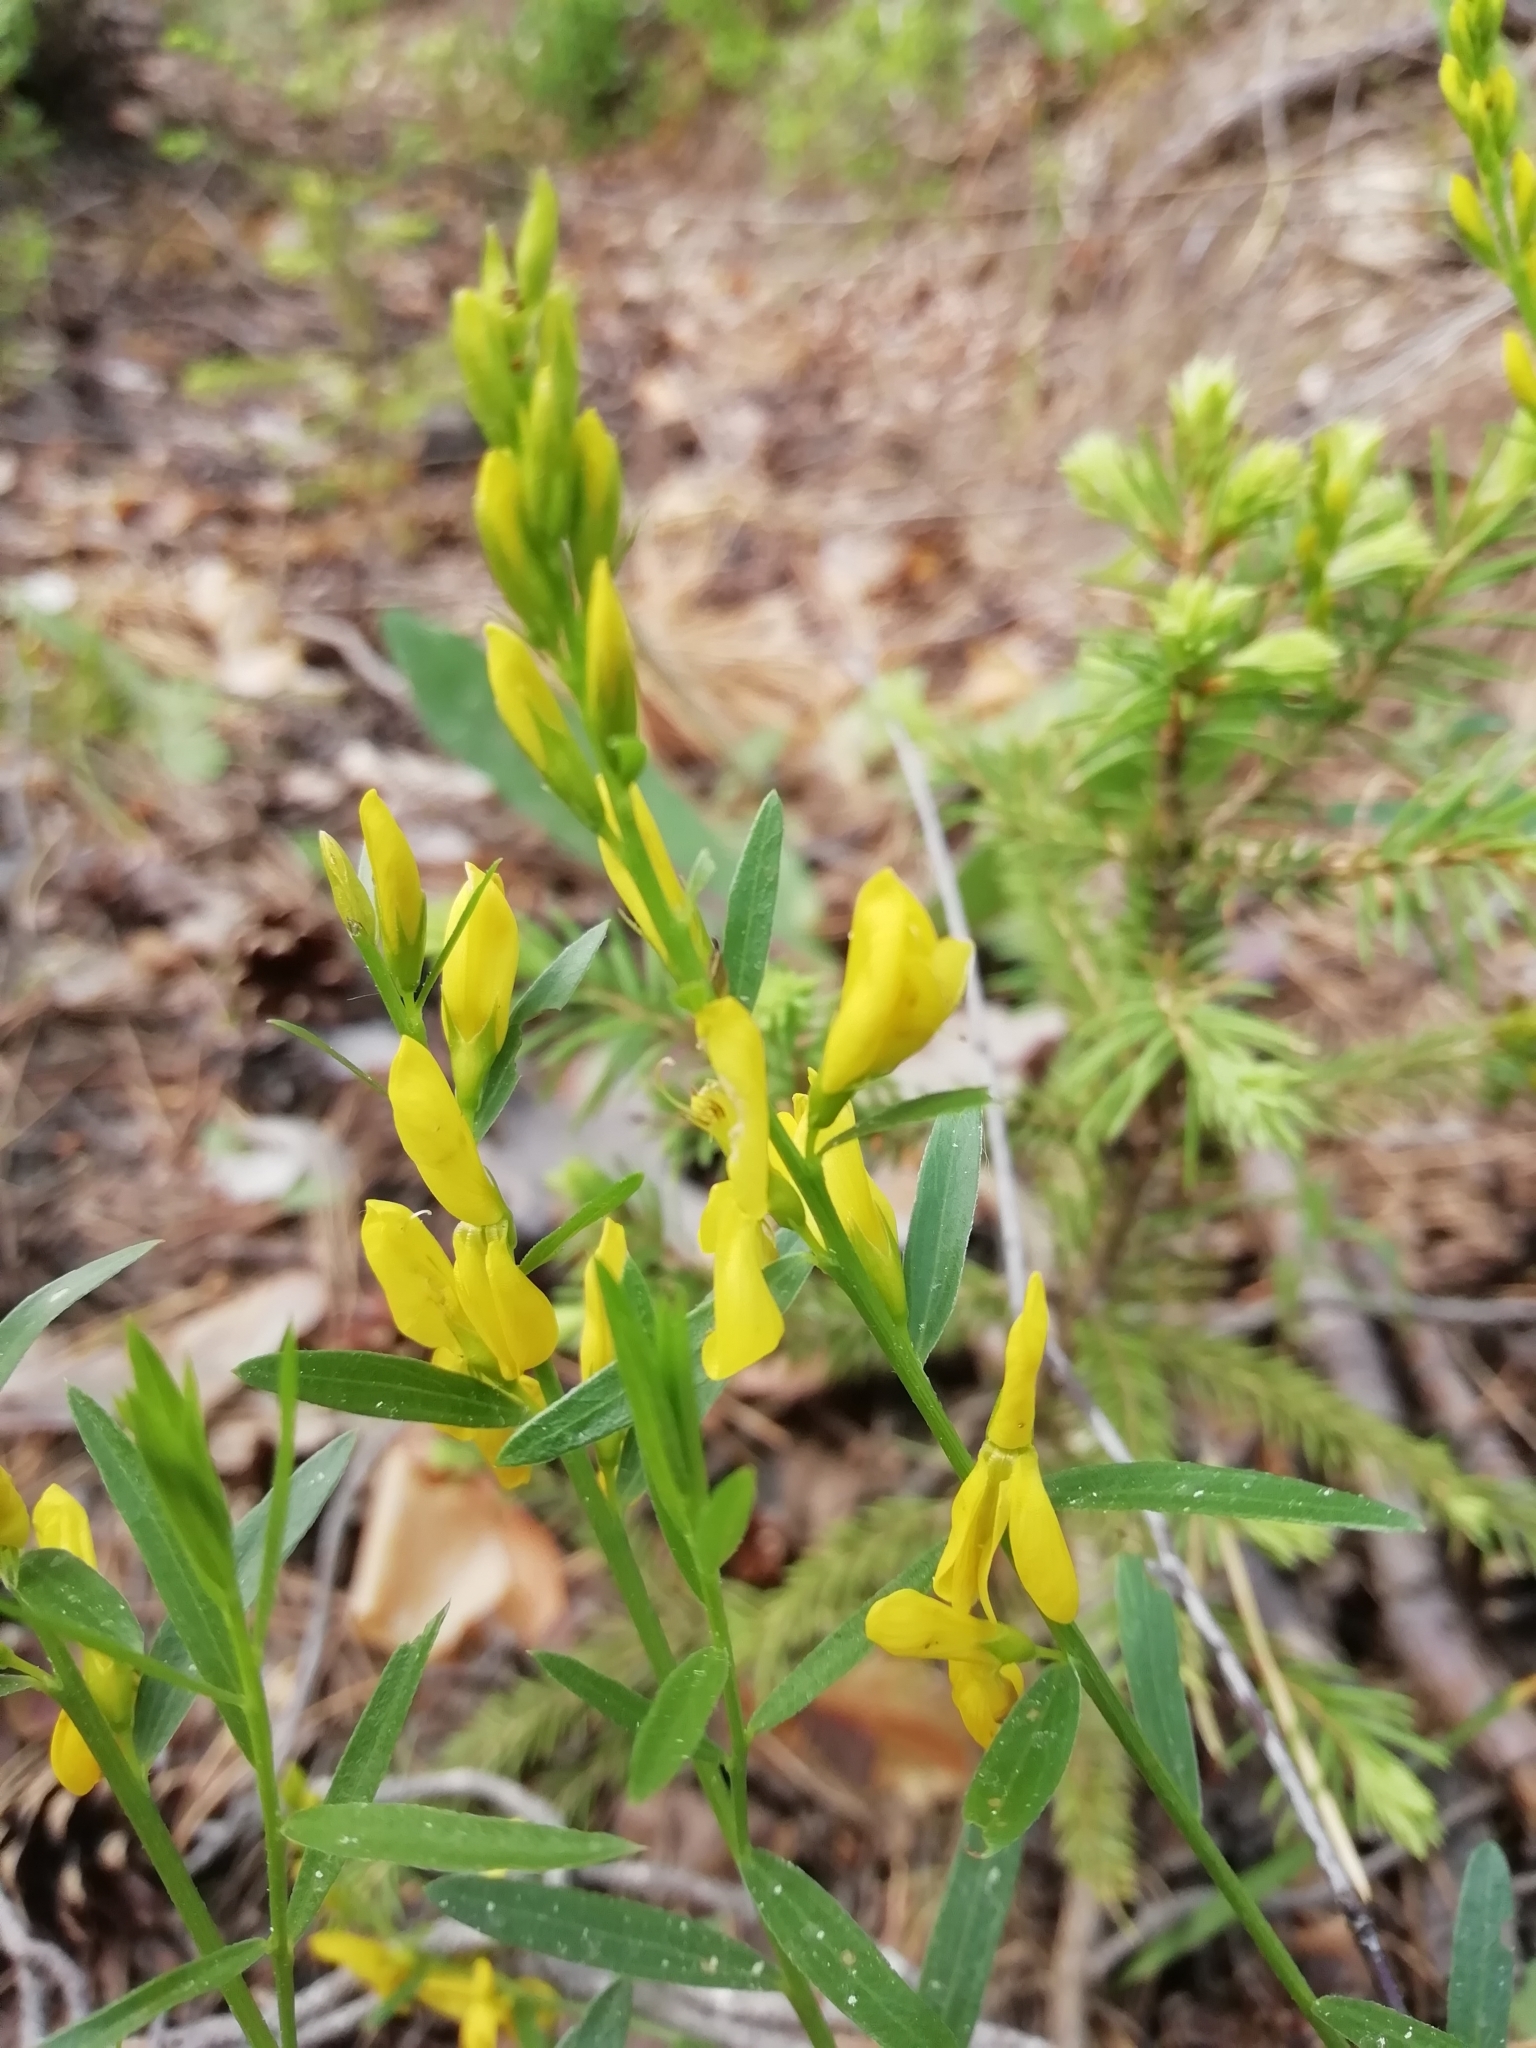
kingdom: Plantae
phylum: Tracheophyta
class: Magnoliopsida
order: Fabales
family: Fabaceae
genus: Genista
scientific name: Genista tinctoria
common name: Dyer's greenweed
